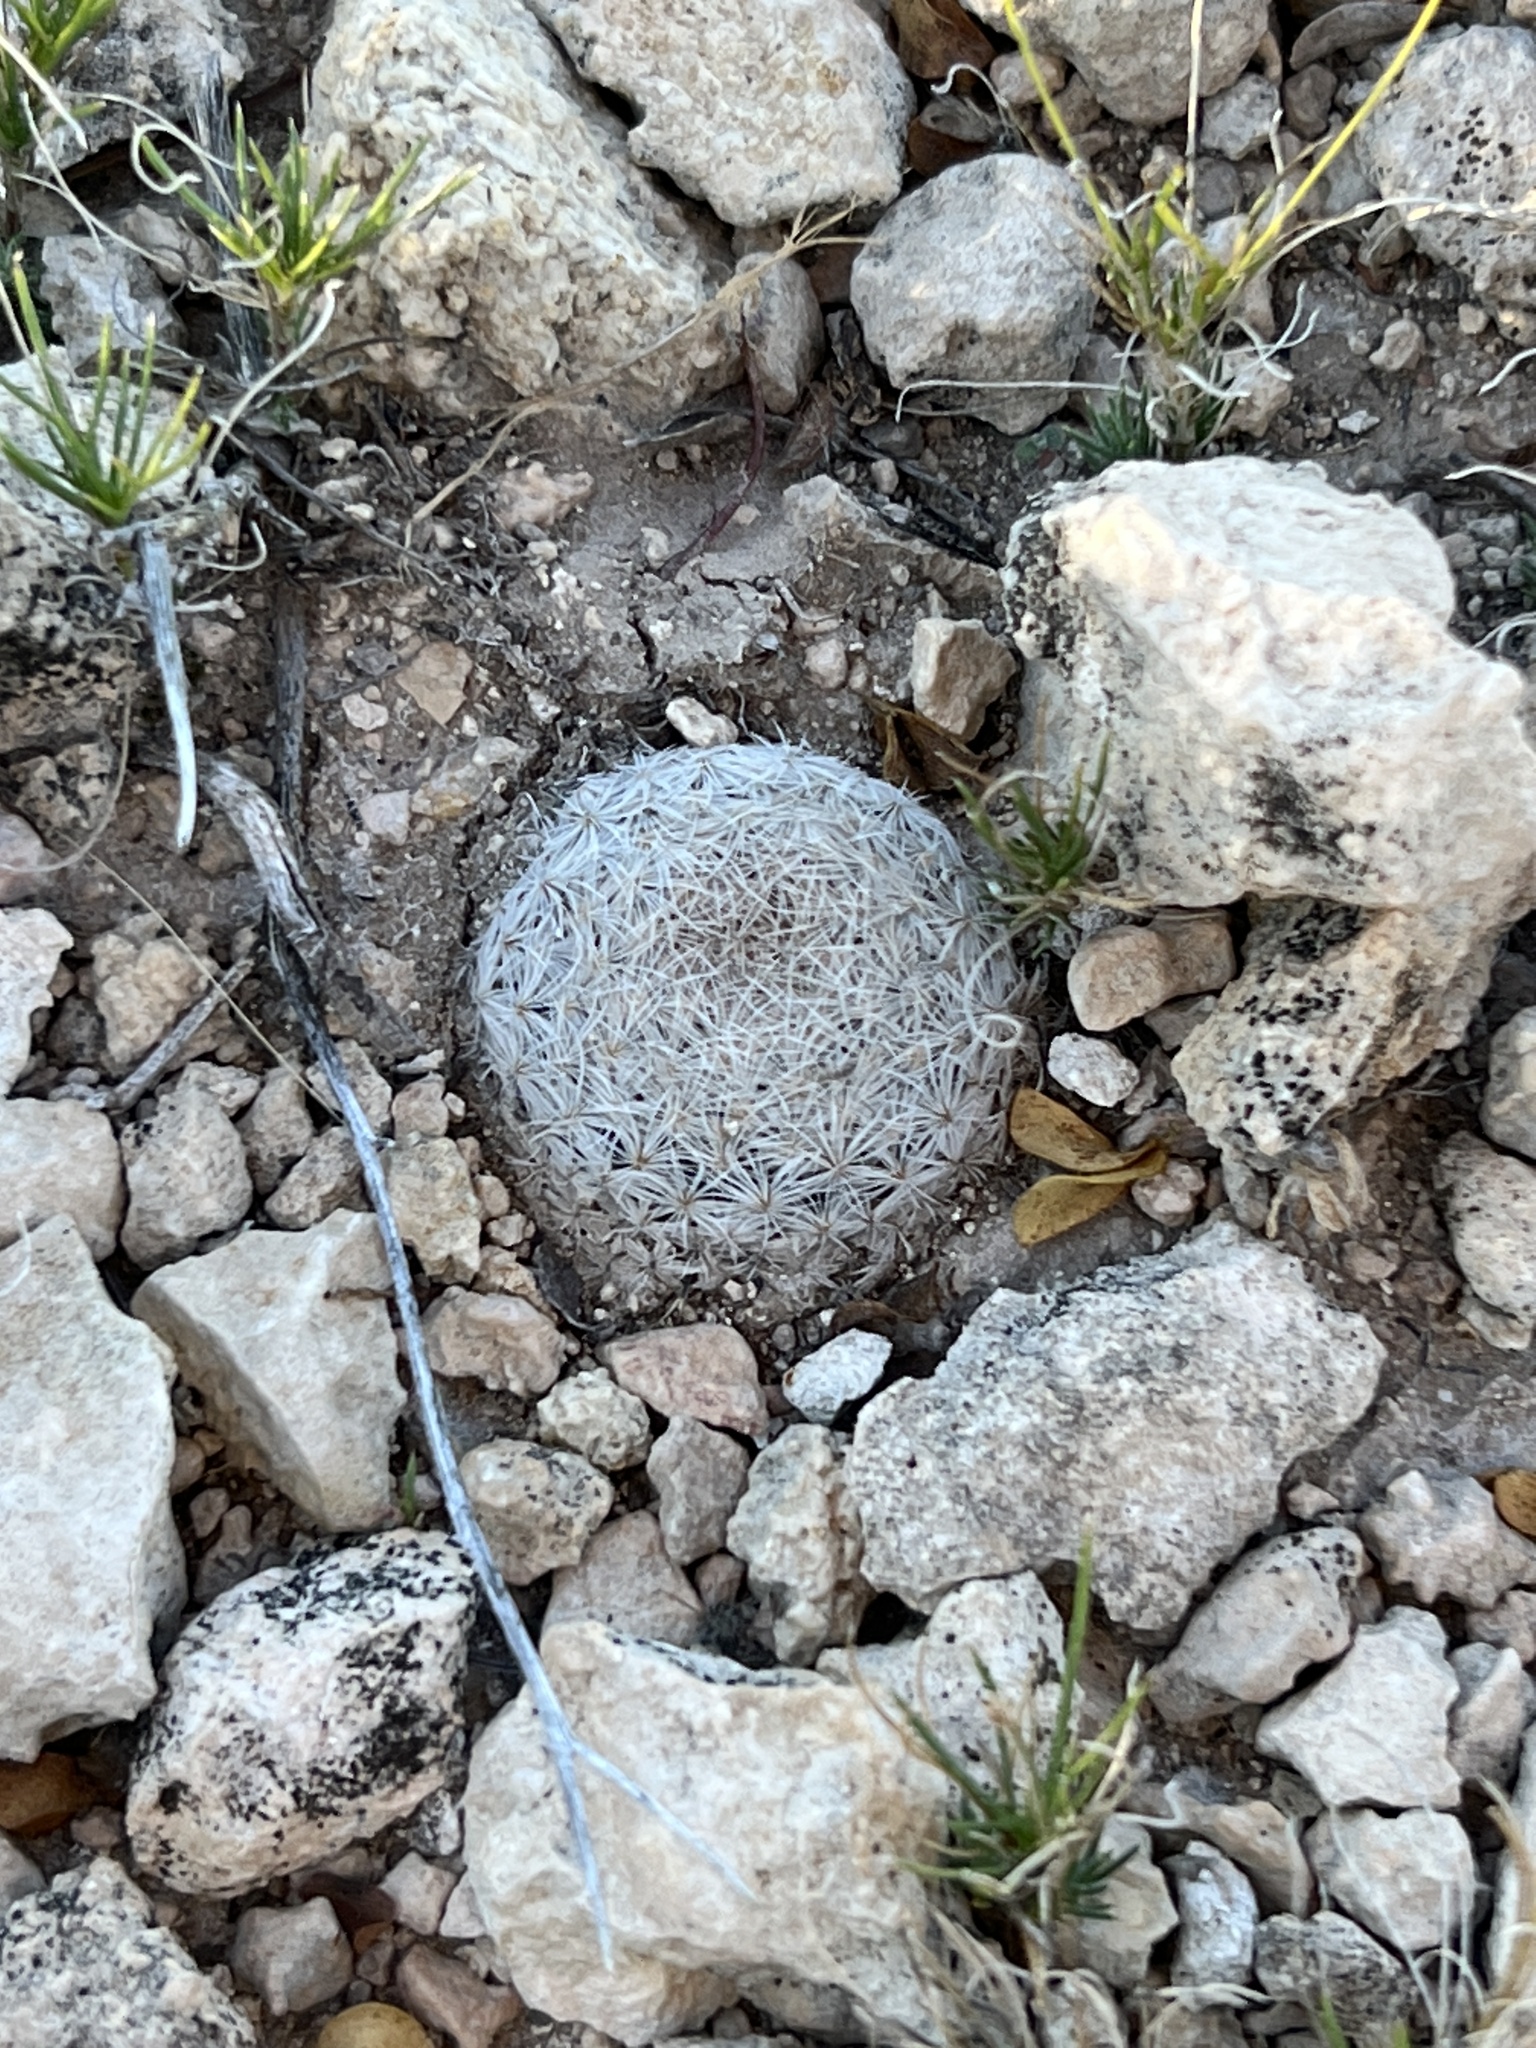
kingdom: Plantae
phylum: Tracheophyta
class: Magnoliopsida
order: Caryophyllales
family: Cactaceae
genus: Mammillaria
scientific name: Mammillaria lasiacantha
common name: Lace-spine nipple cactus
